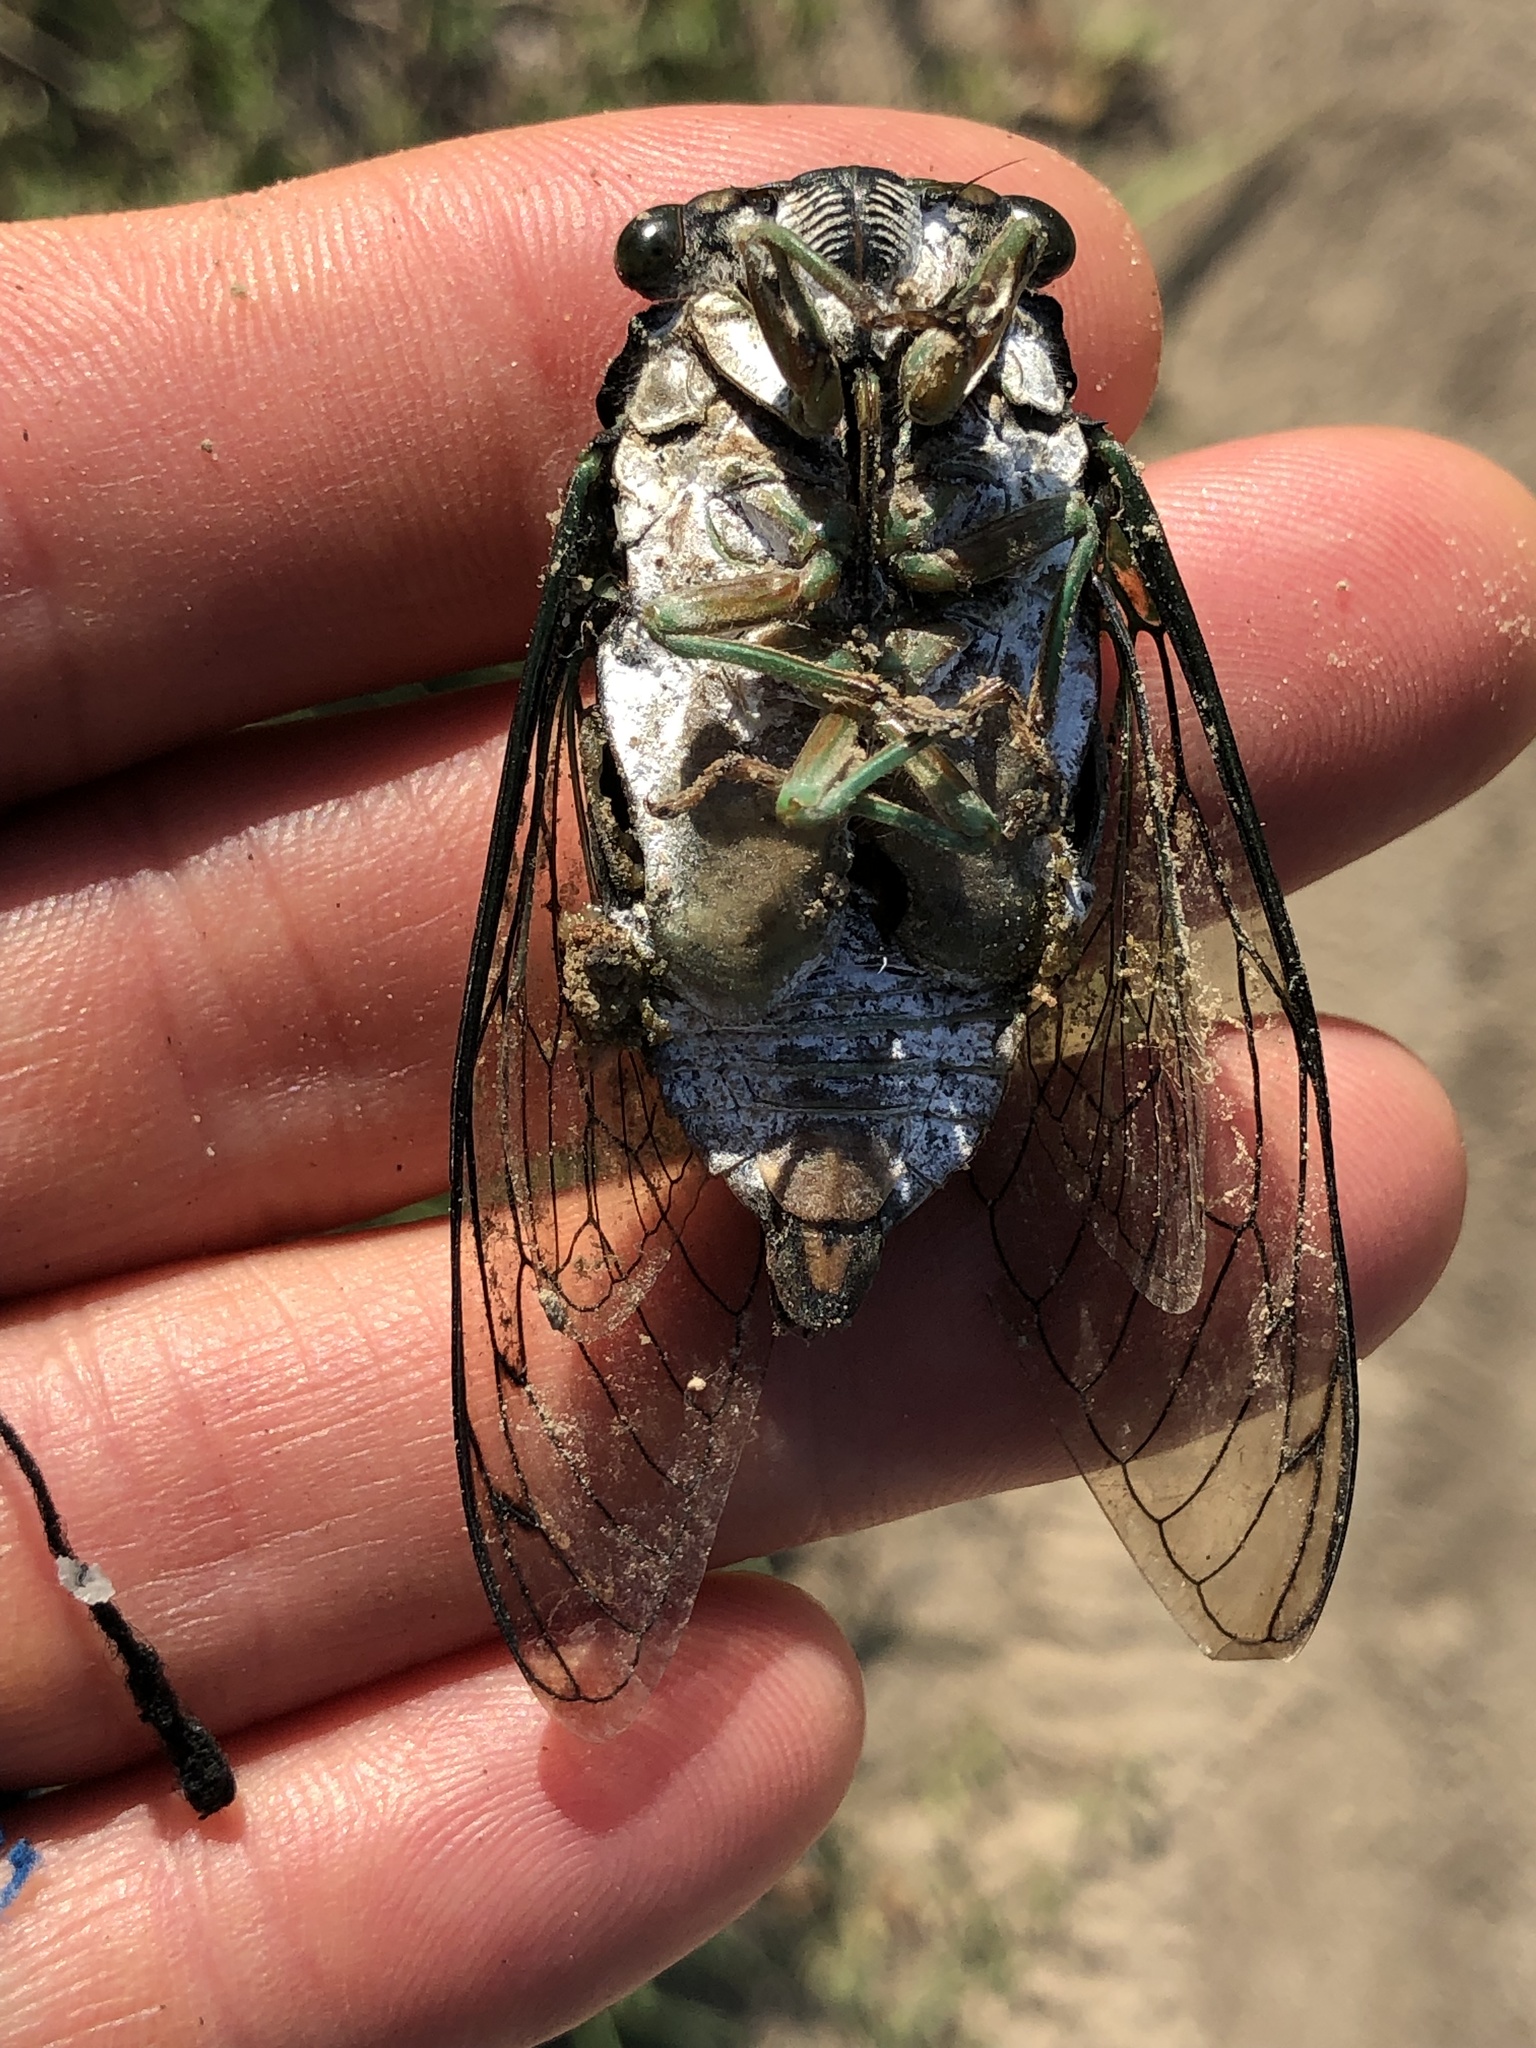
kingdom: Animalia
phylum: Arthropoda
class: Insecta
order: Hemiptera
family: Cicadidae
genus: Neotibicen
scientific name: Neotibicen tibicen
